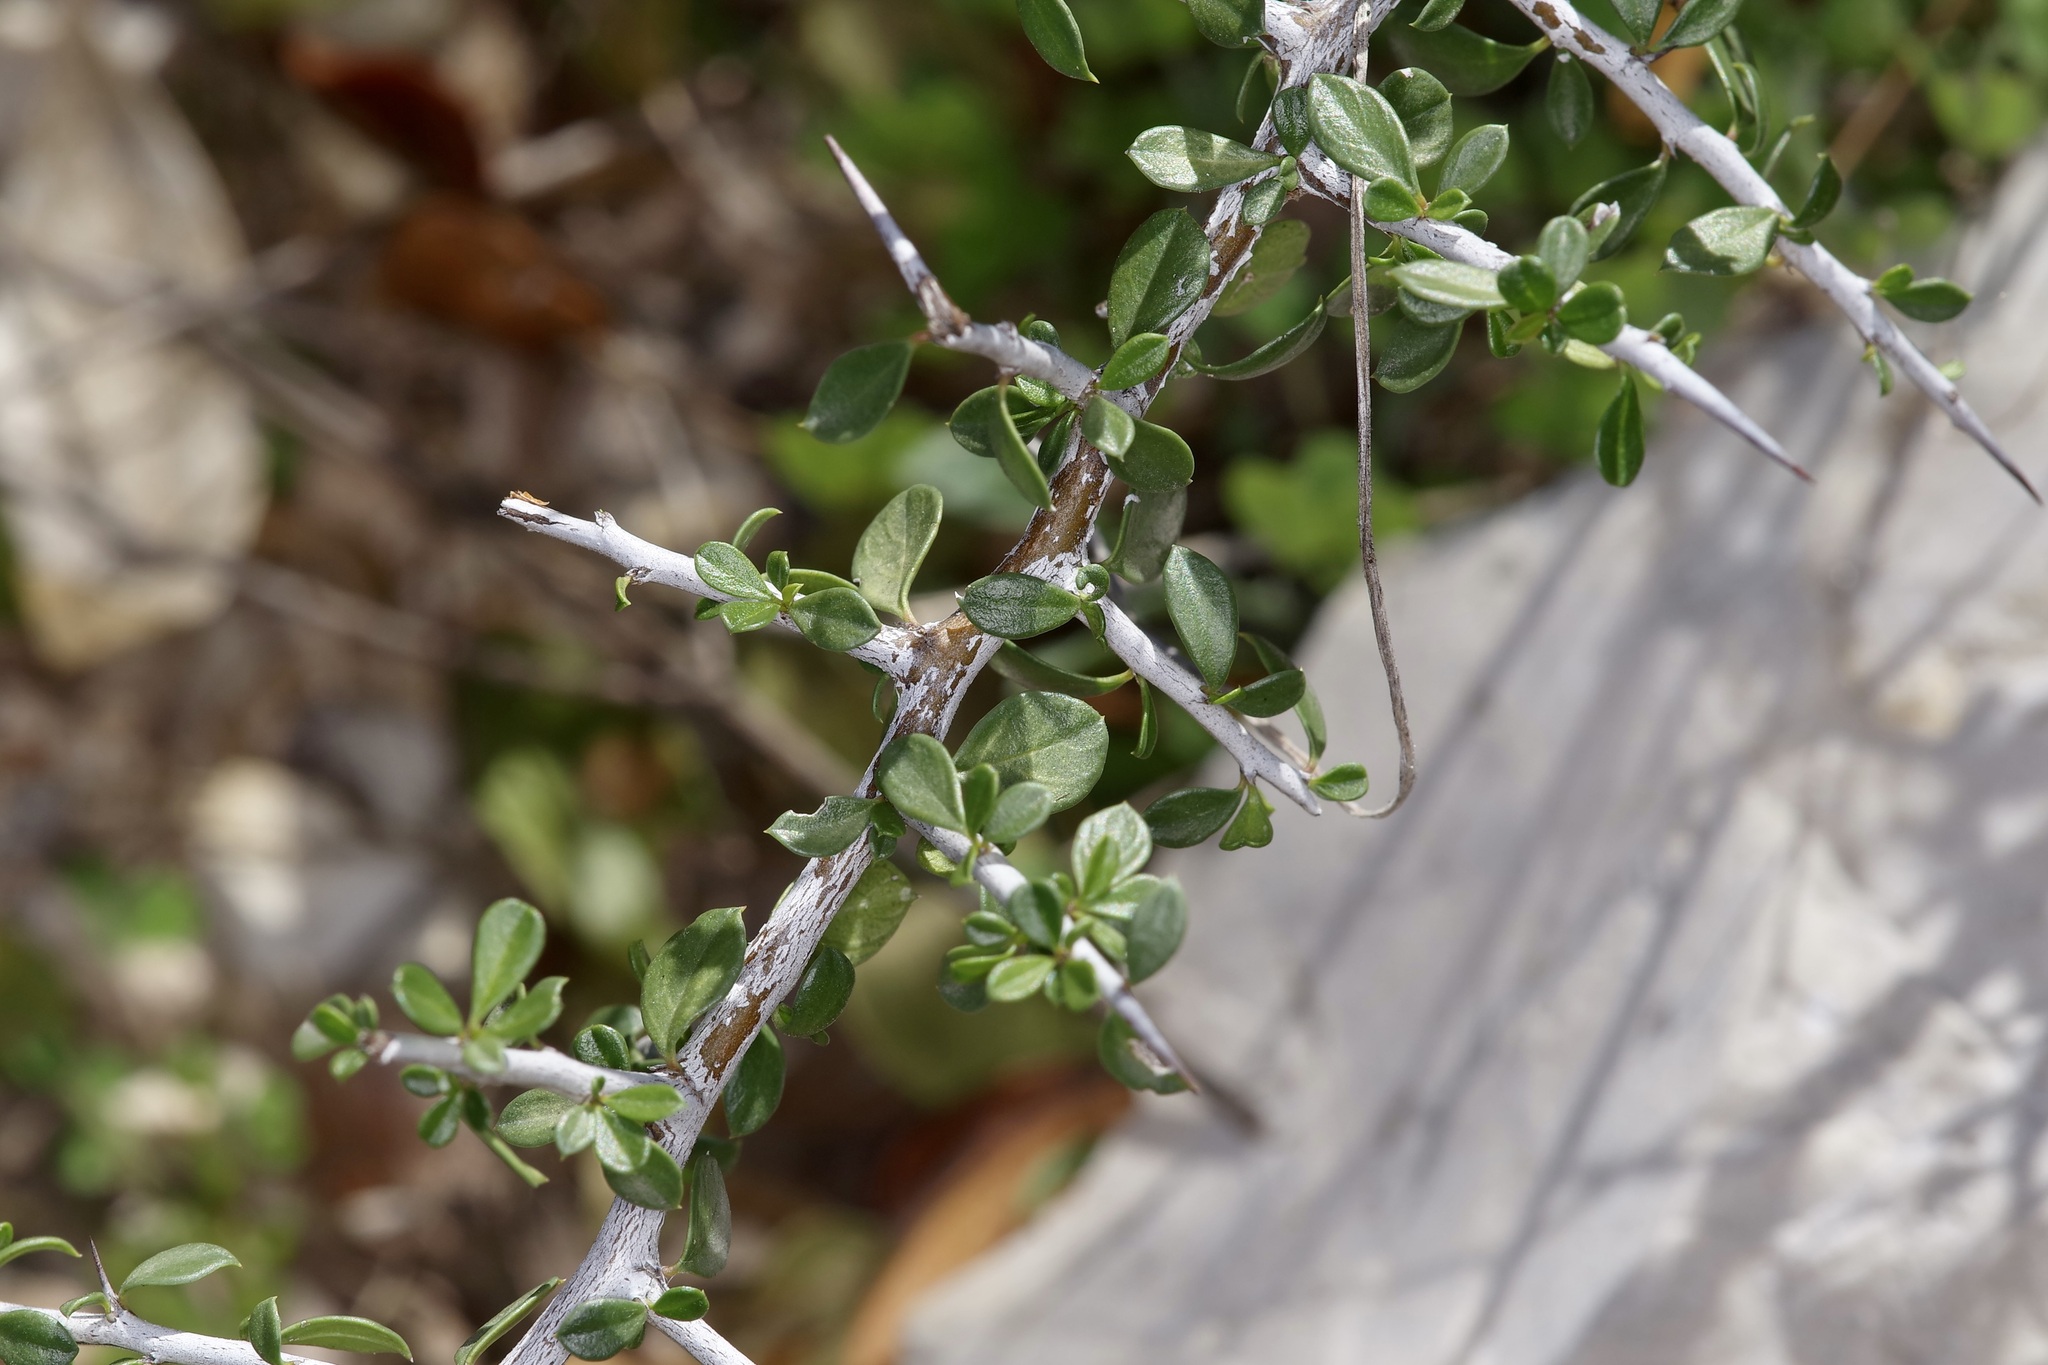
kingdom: Plantae
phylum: Tracheophyta
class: Magnoliopsida
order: Rosales
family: Rhamnaceae
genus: Condalia
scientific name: Condalia viridis
